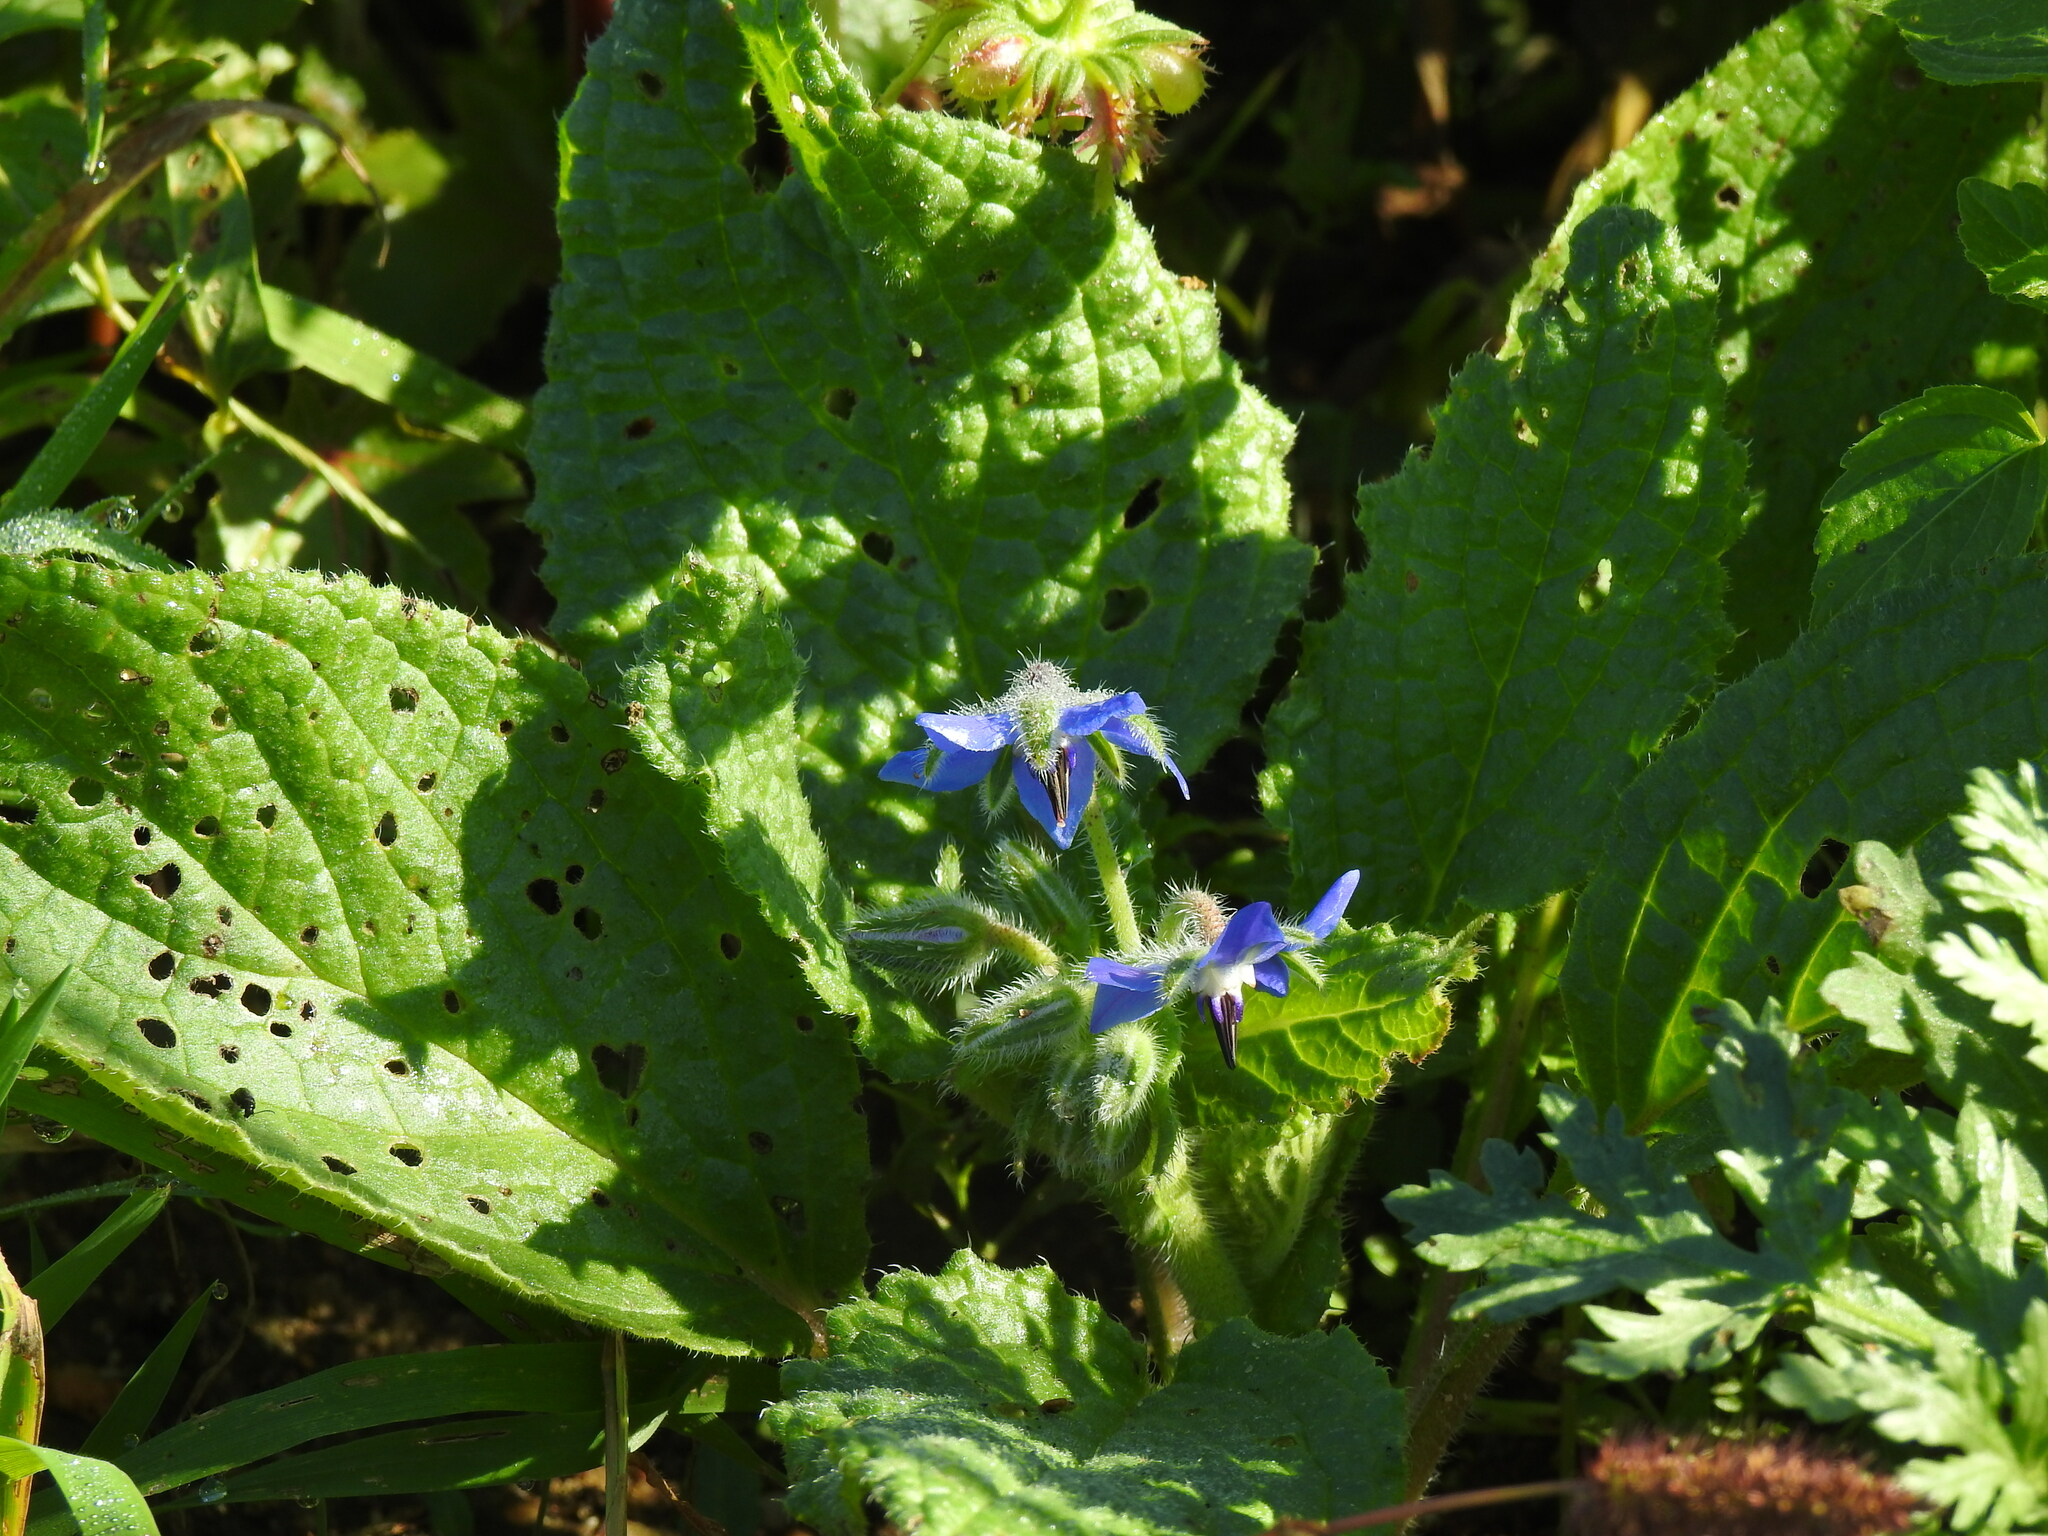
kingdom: Plantae
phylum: Tracheophyta
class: Magnoliopsida
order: Boraginales
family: Boraginaceae
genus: Borago
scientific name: Borago officinalis
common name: Borage
